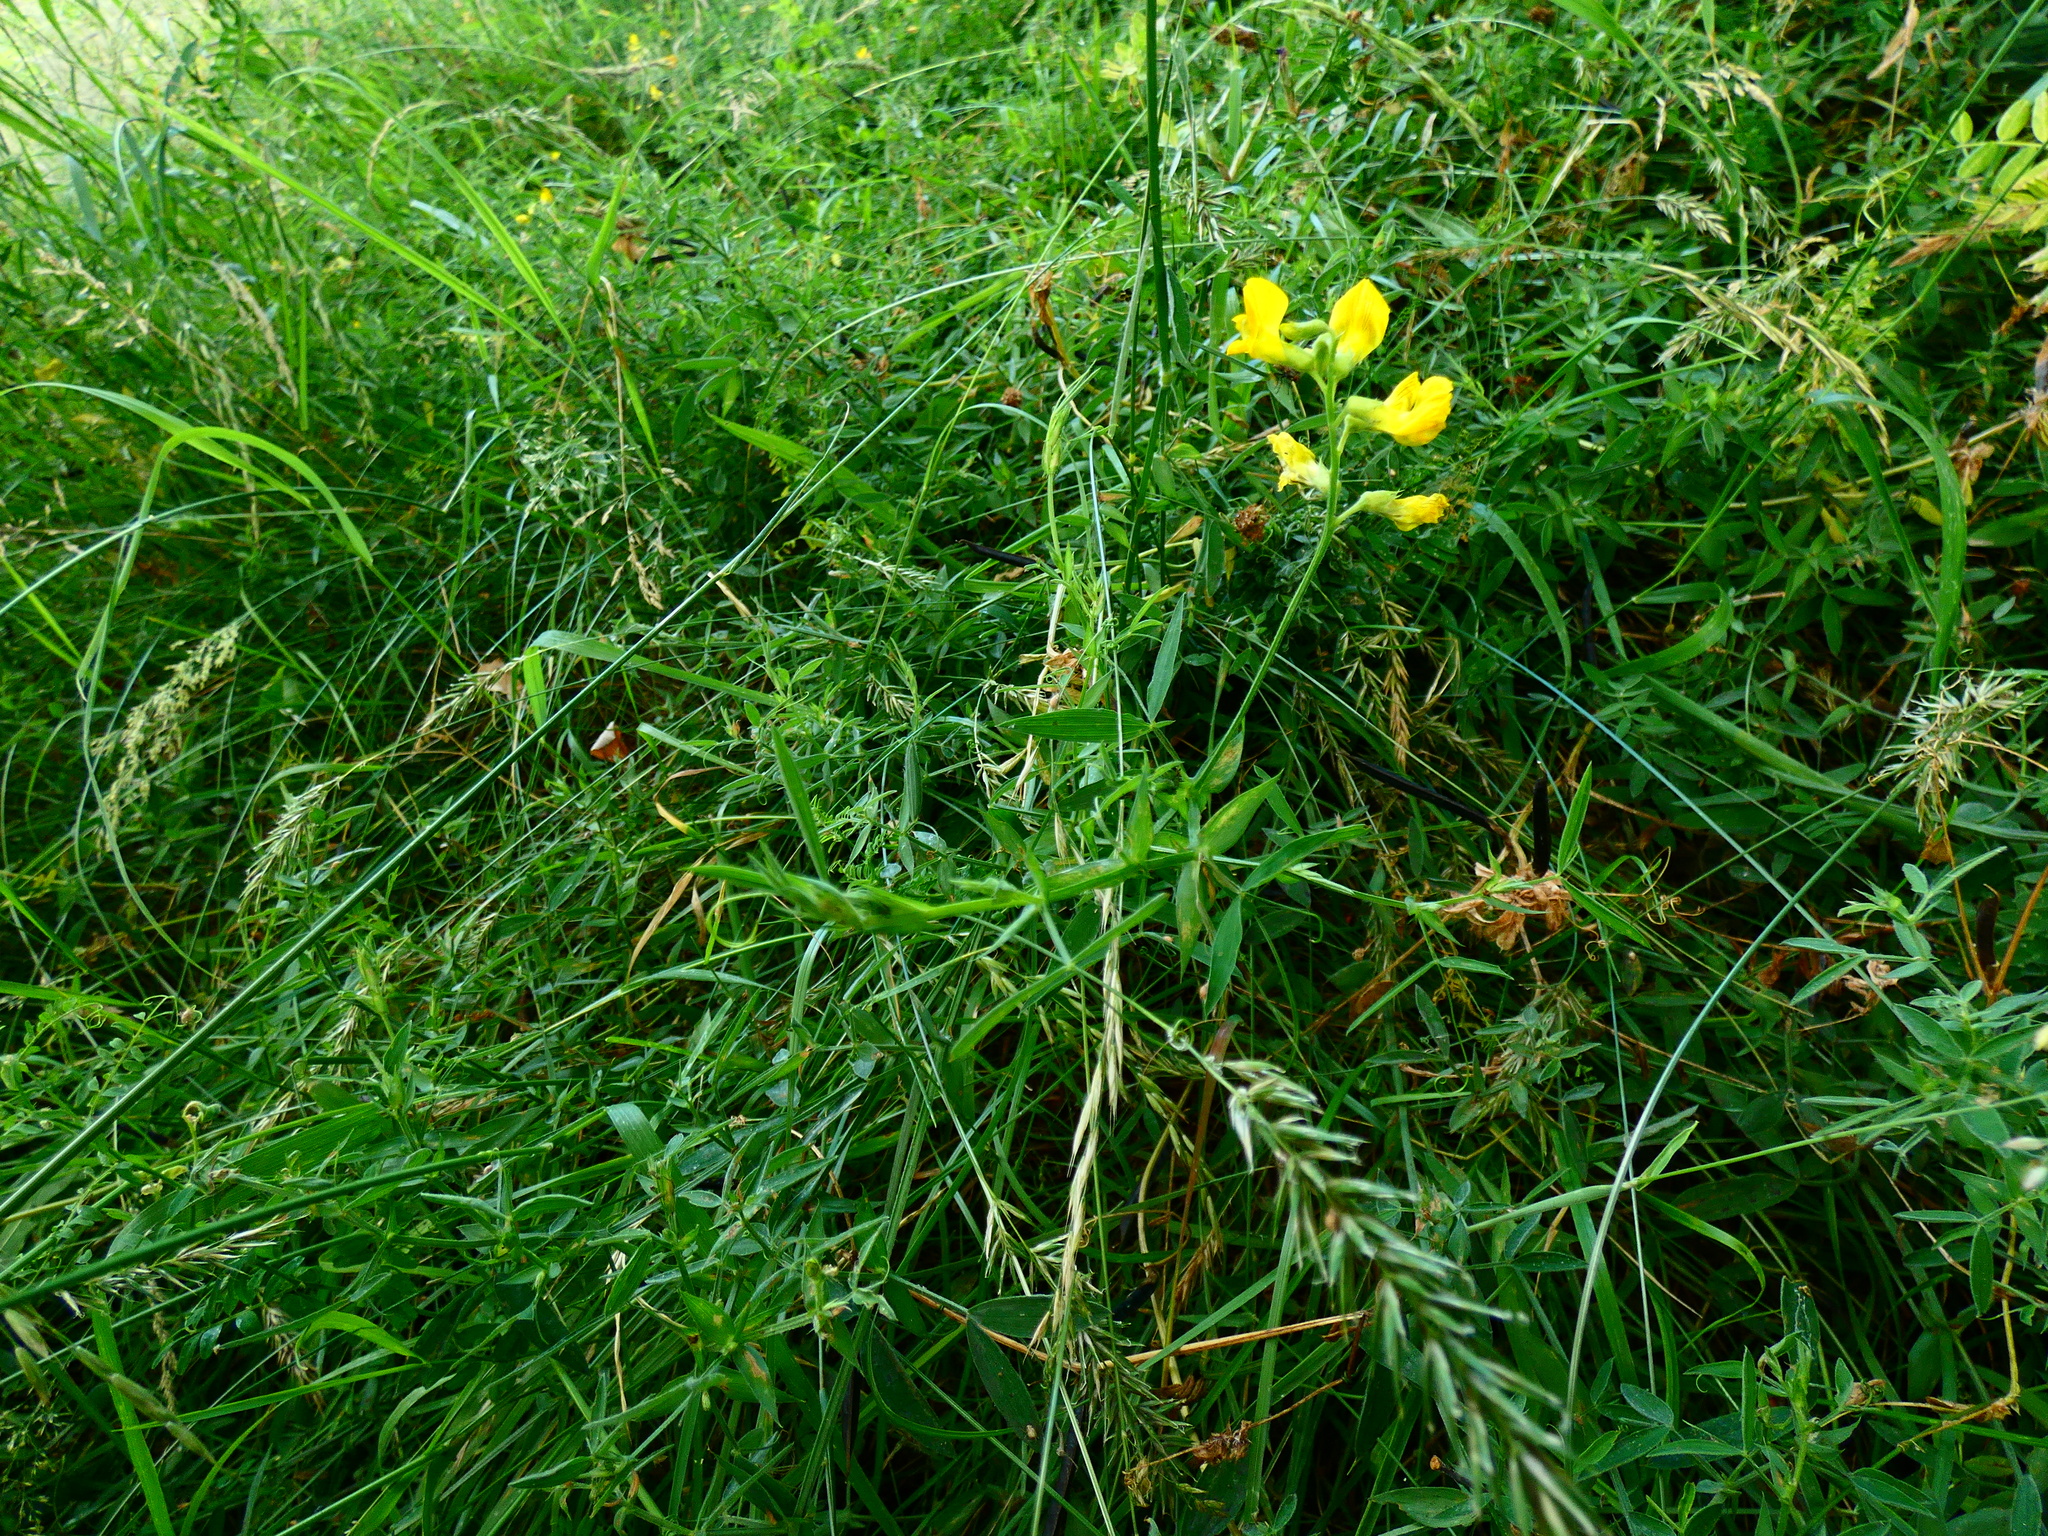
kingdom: Plantae
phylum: Tracheophyta
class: Magnoliopsida
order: Fabales
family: Fabaceae
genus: Lathyrus
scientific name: Lathyrus pratensis
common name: Meadow vetchling
